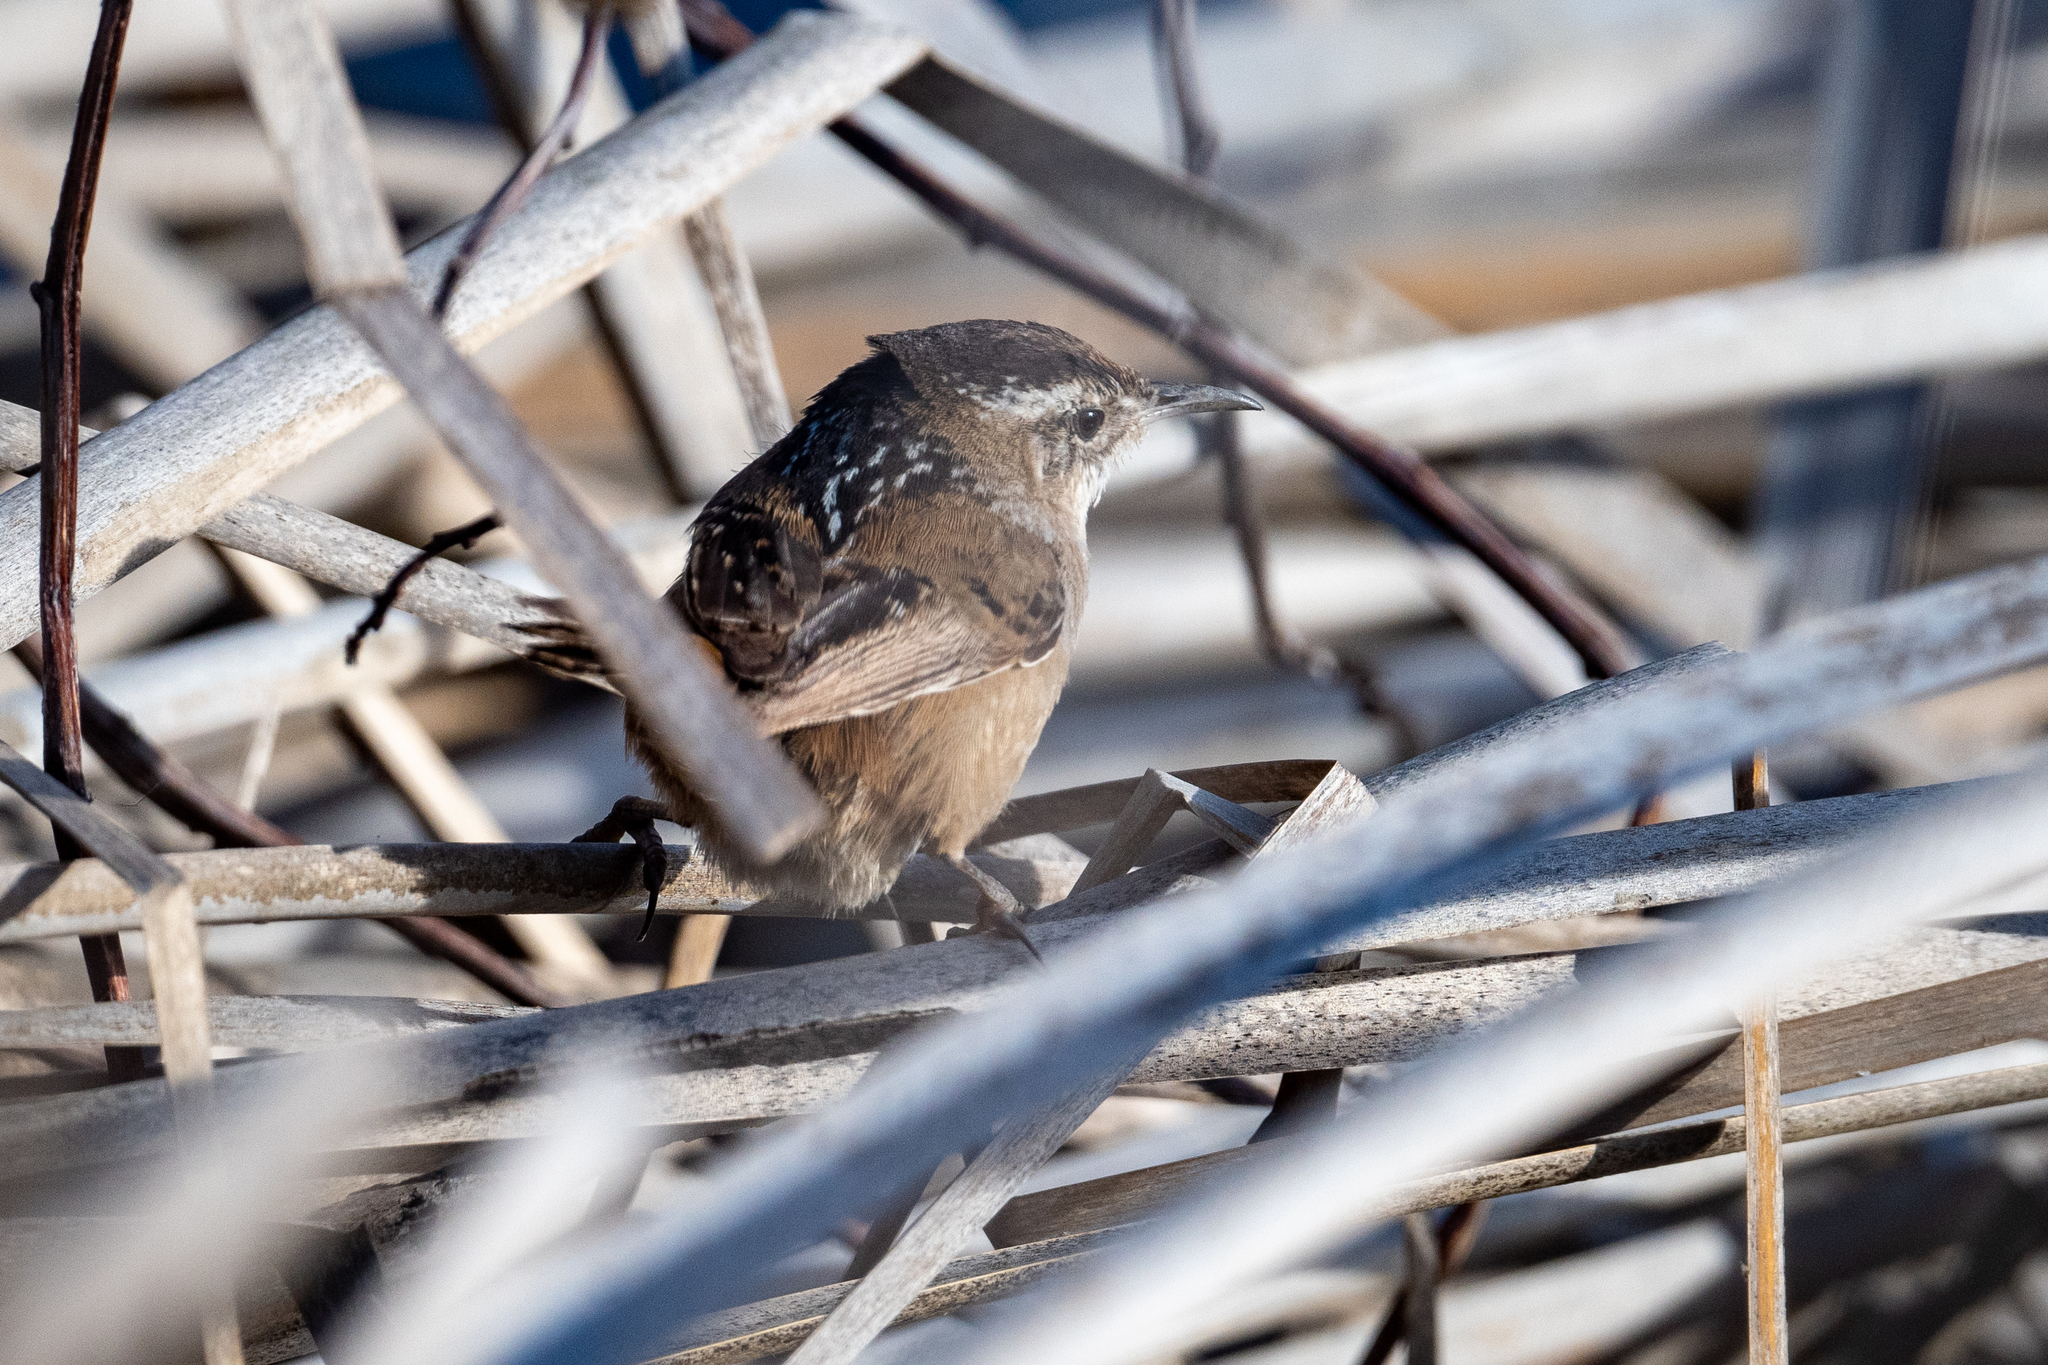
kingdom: Animalia
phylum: Chordata
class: Aves
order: Passeriformes
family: Troglodytidae
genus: Cistothorus
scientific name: Cistothorus palustris
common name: Marsh wren
